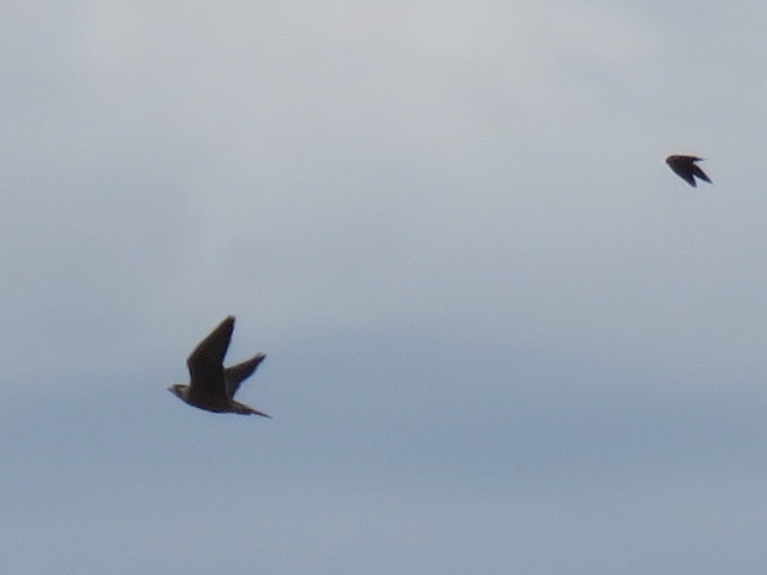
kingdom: Animalia
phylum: Chordata
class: Aves
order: Falconiformes
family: Falconidae
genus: Falco
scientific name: Falco peregrinus
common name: Peregrine falcon
